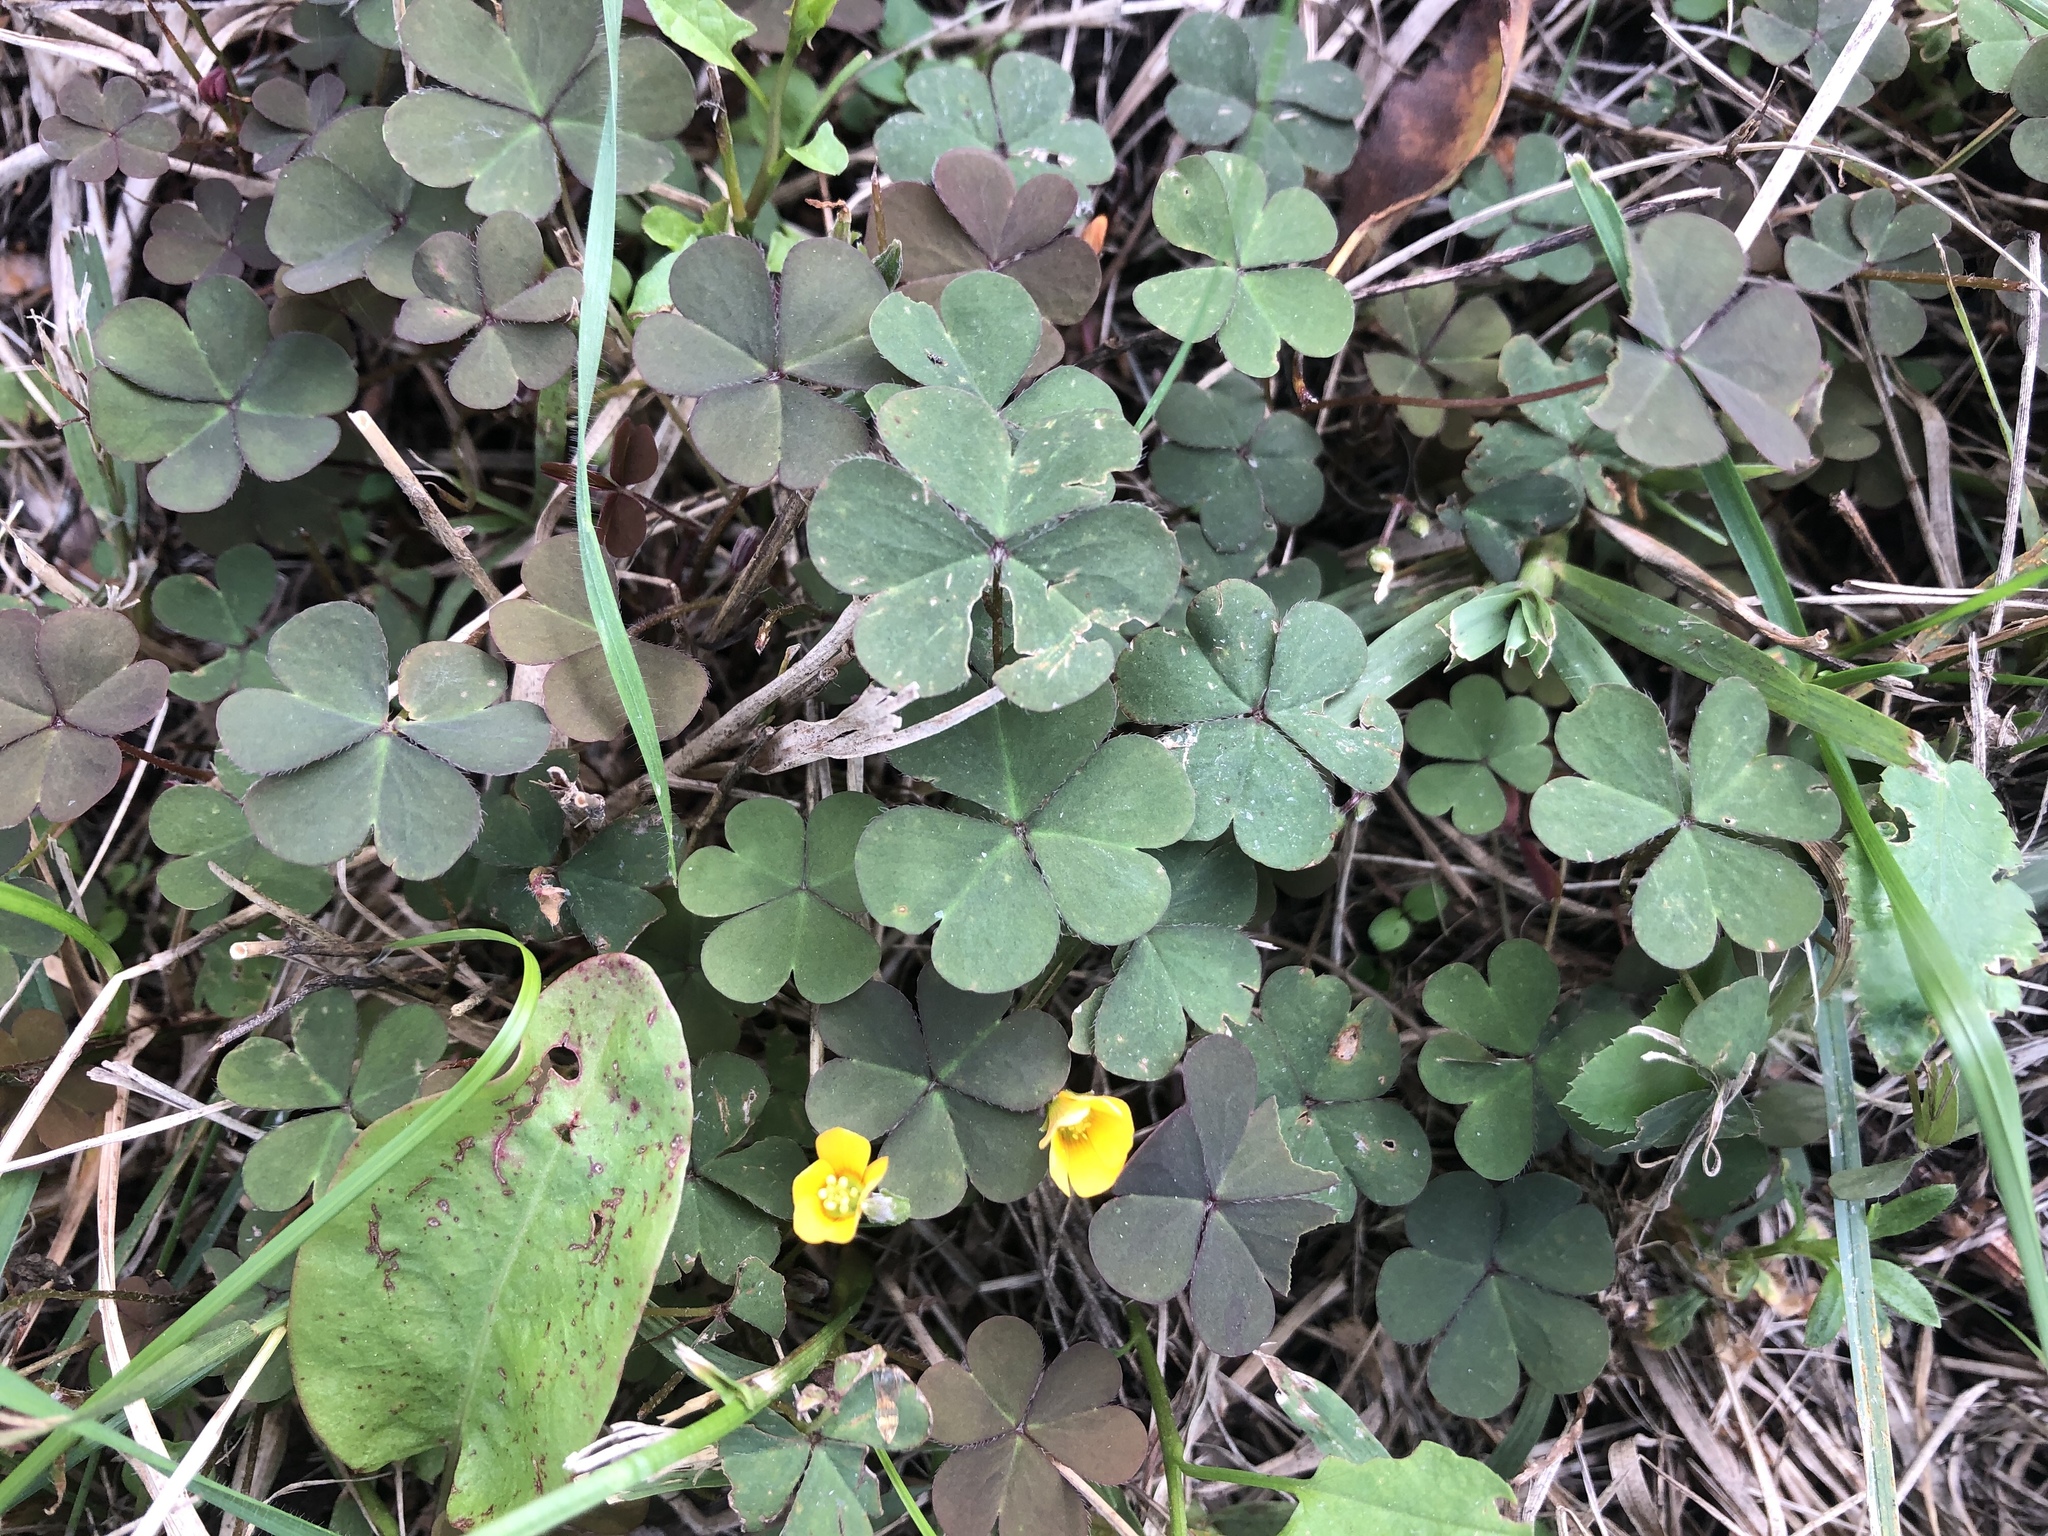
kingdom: Plantae
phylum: Tracheophyta
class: Magnoliopsida
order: Oxalidales
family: Oxalidaceae
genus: Oxalis
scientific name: Oxalis corniculata
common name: Procumbent yellow-sorrel
